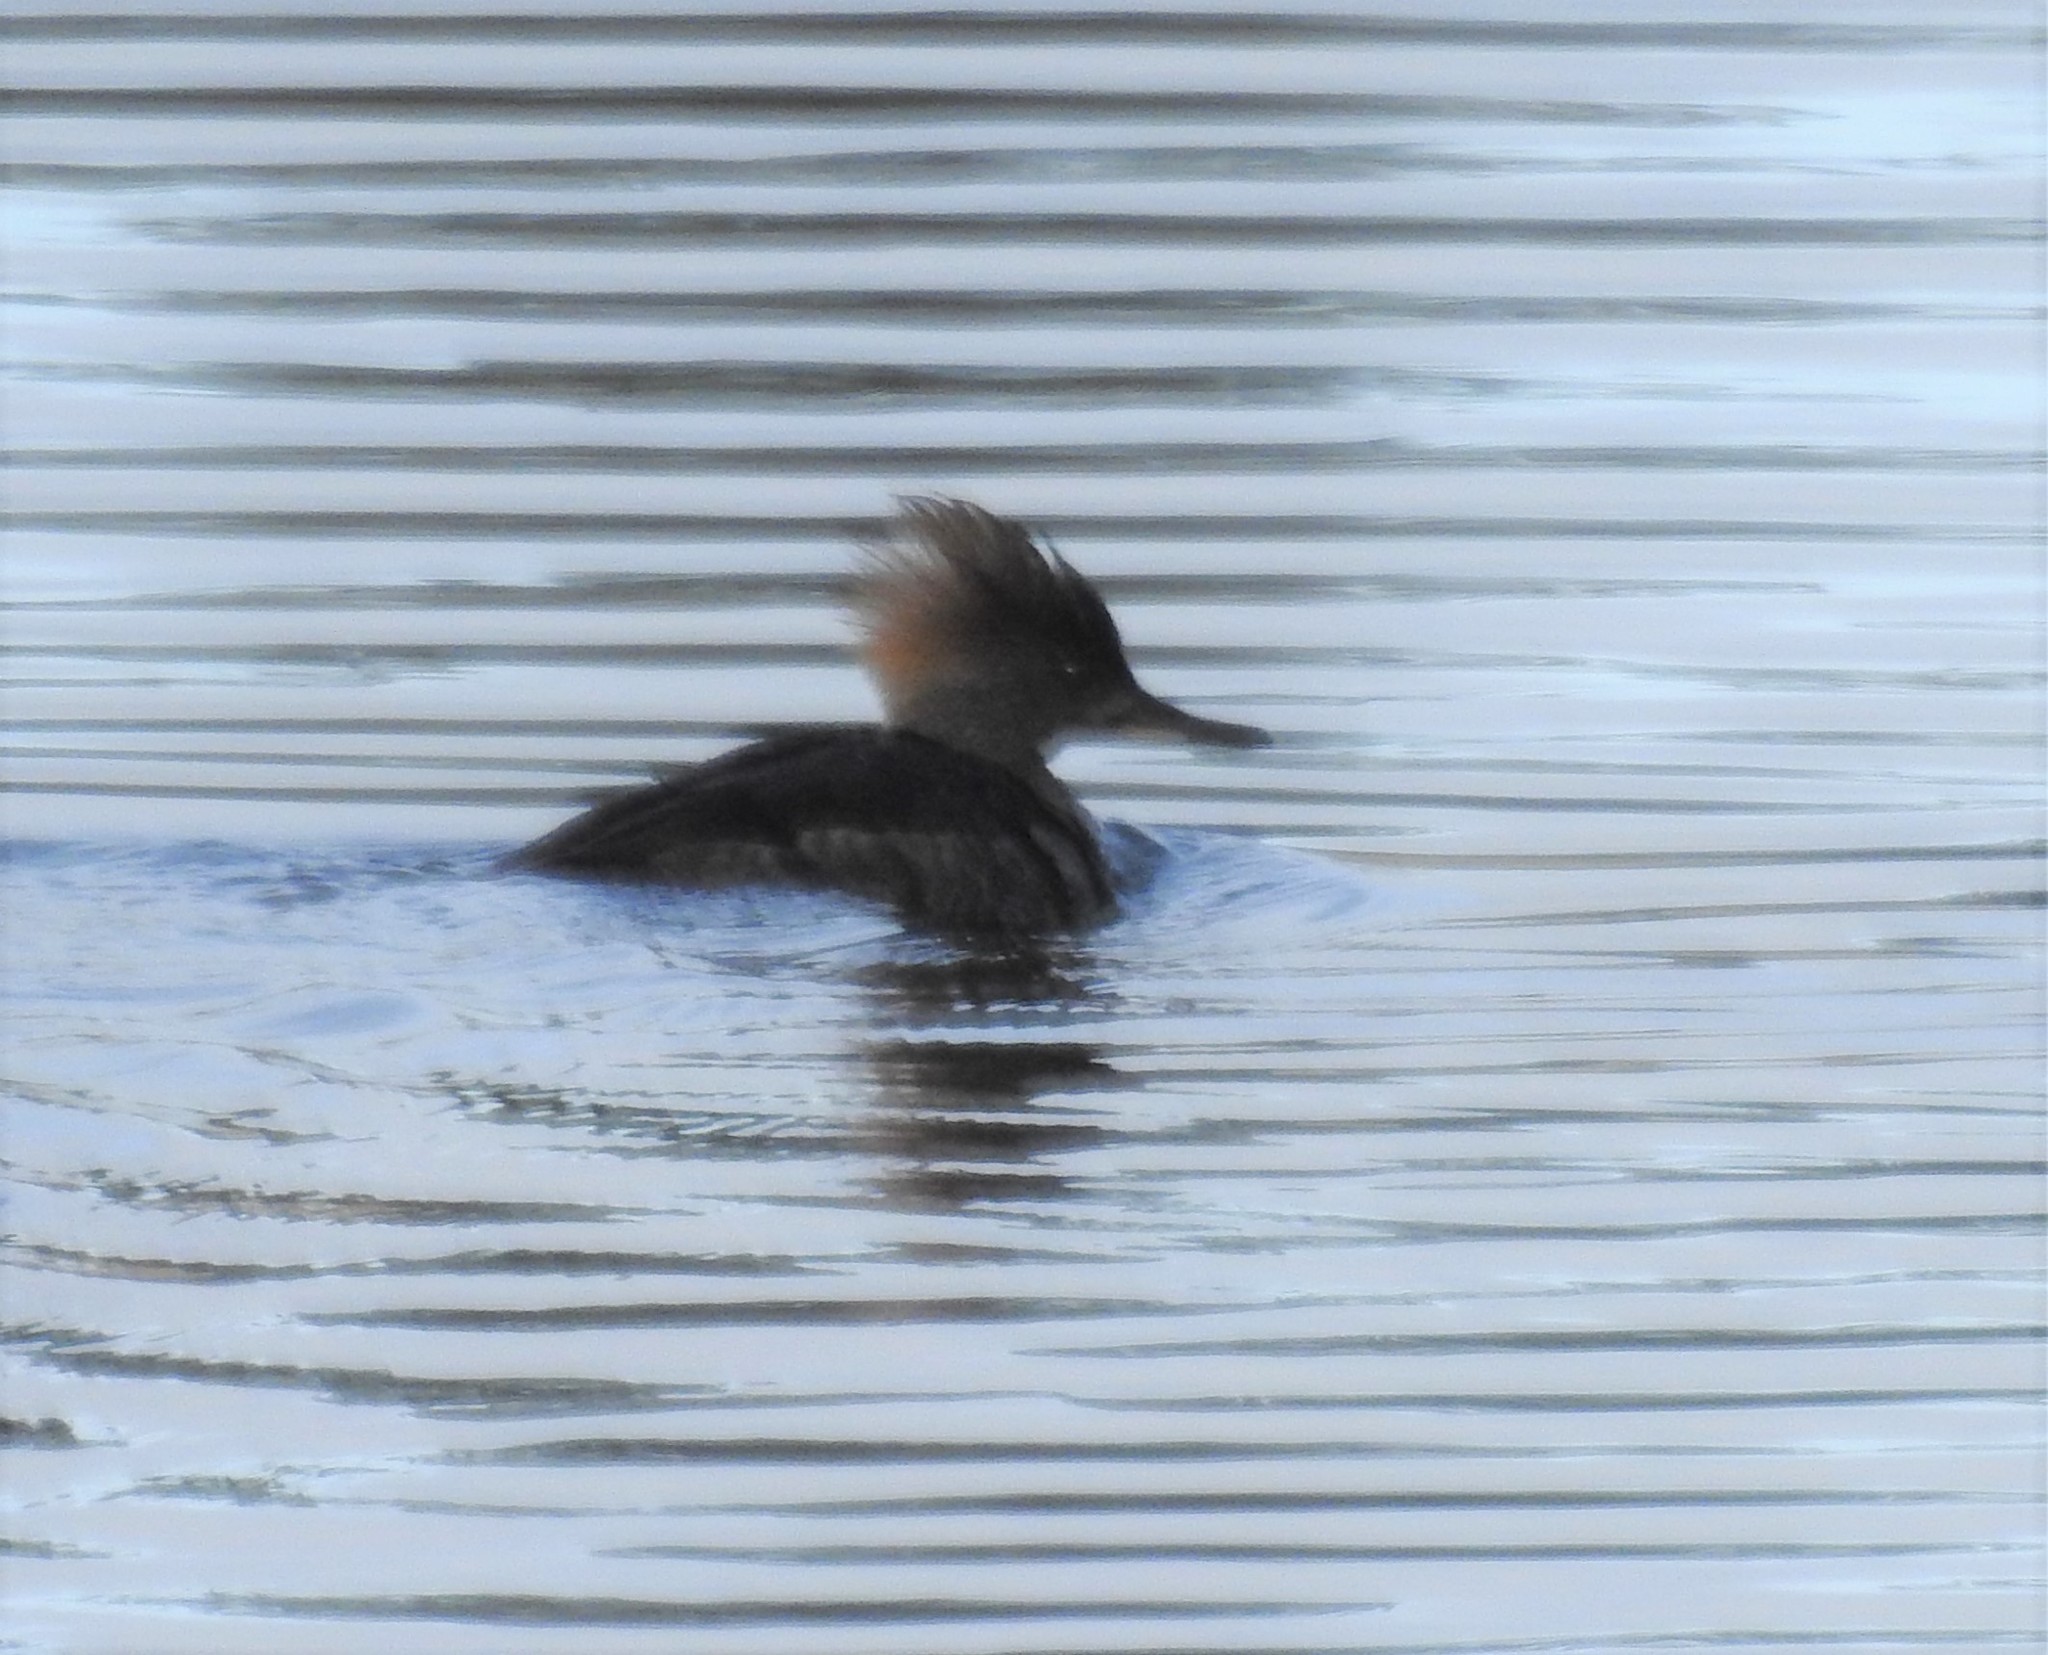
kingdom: Animalia
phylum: Chordata
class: Aves
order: Anseriformes
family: Anatidae
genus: Lophodytes
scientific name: Lophodytes cucullatus
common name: Hooded merganser
